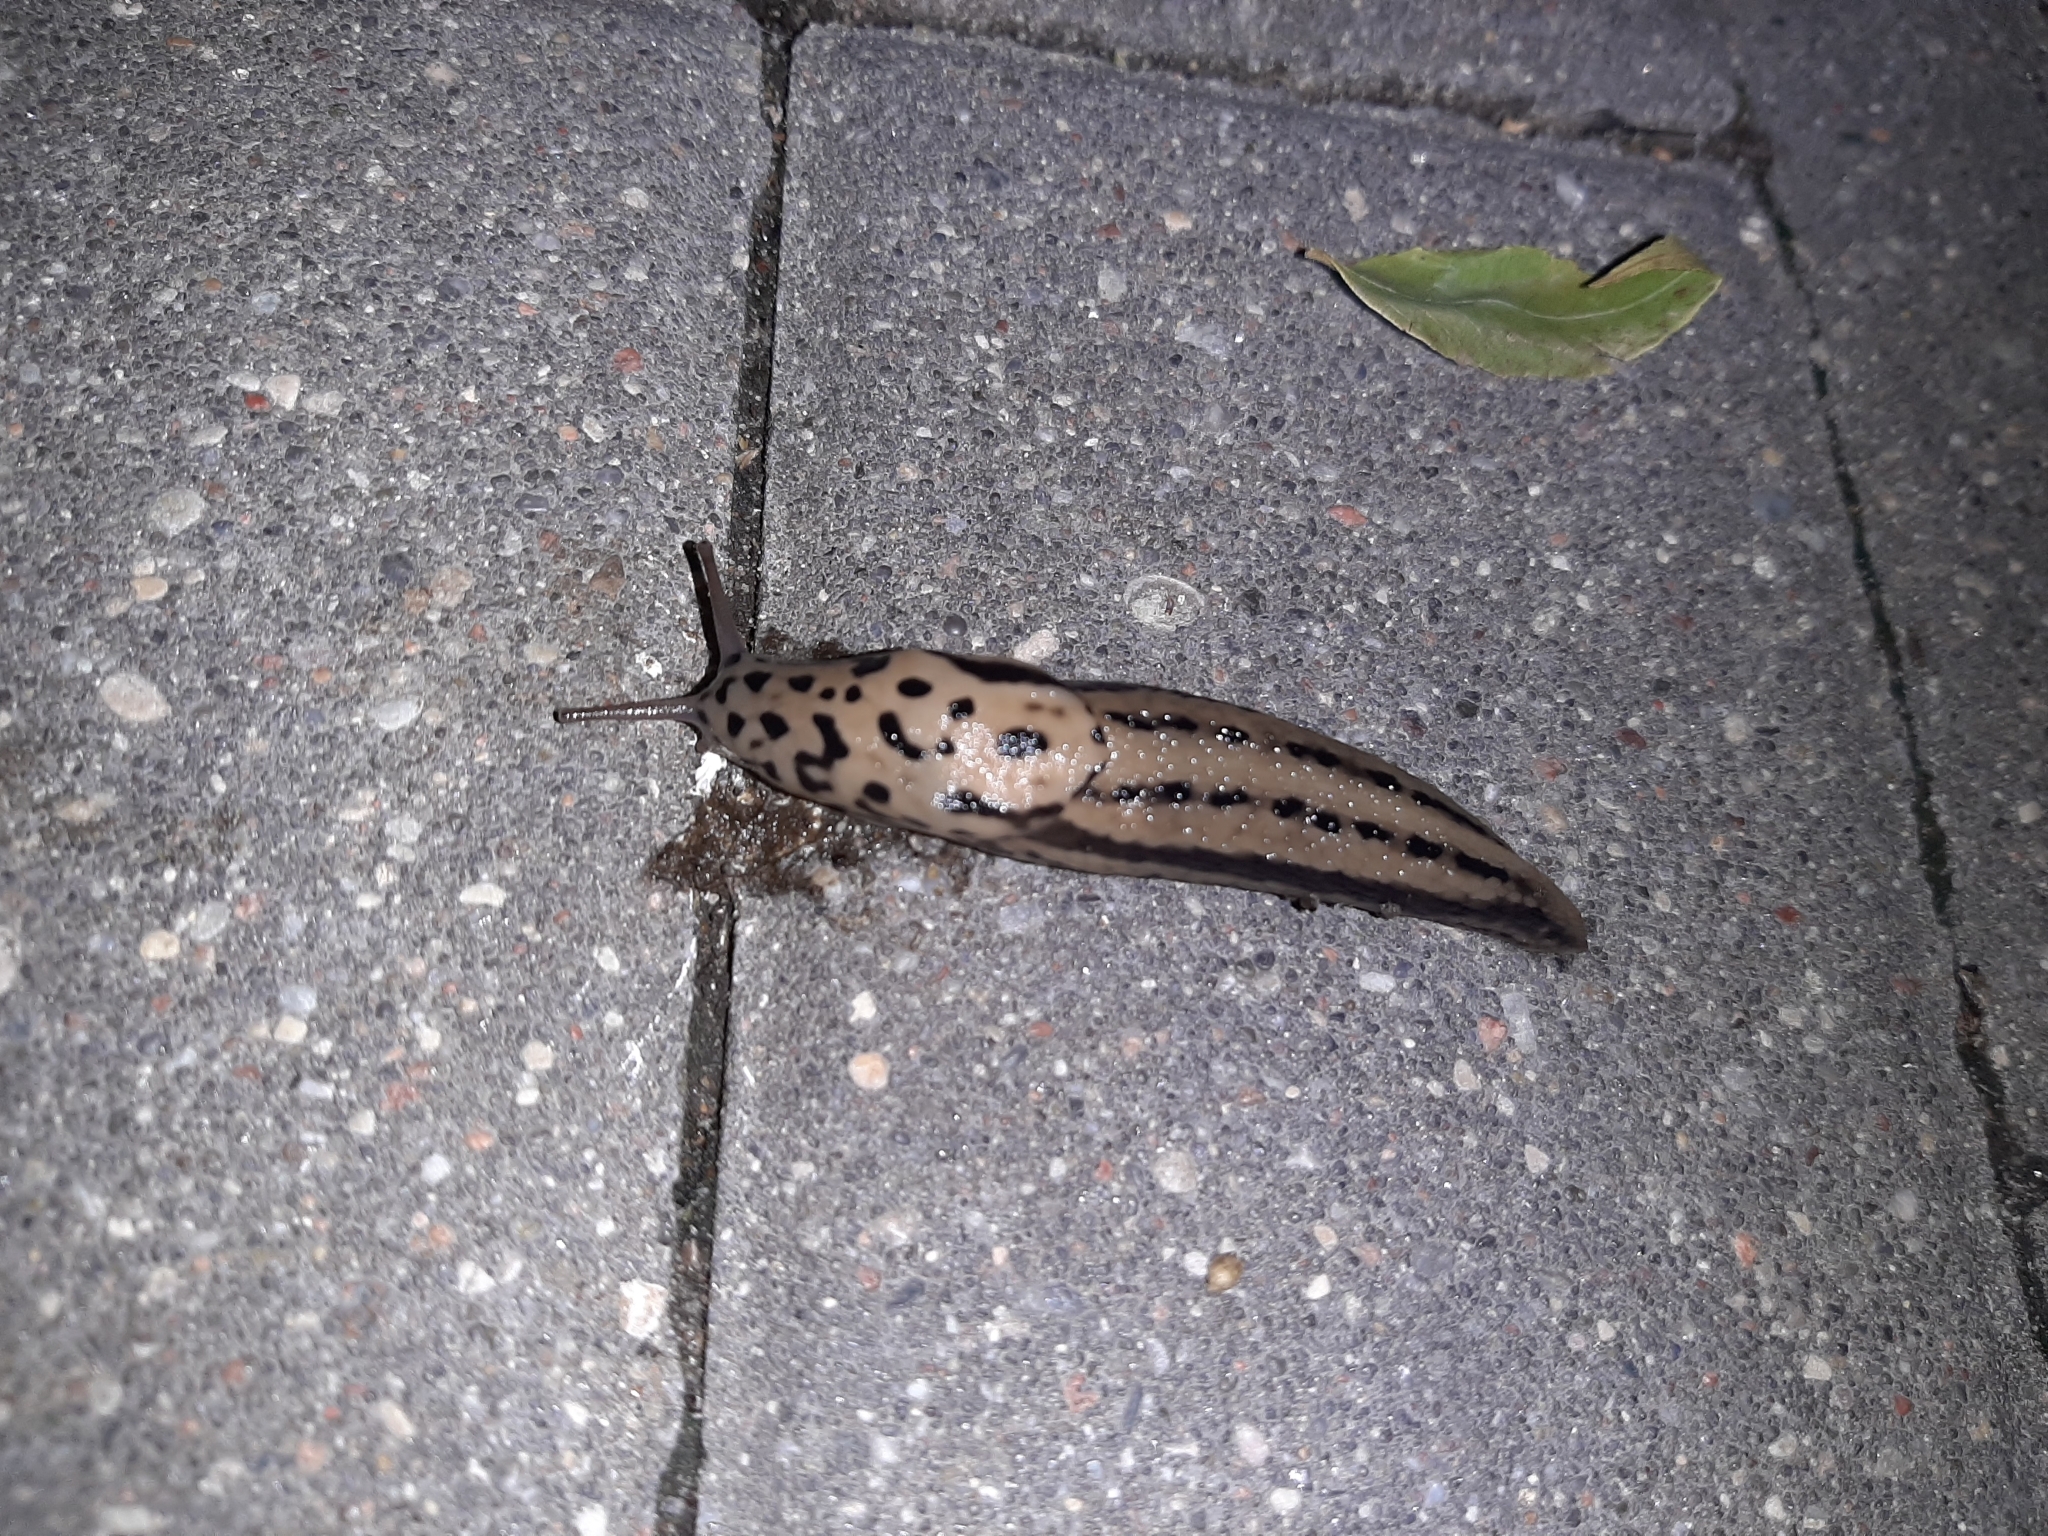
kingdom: Animalia
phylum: Mollusca
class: Gastropoda
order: Stylommatophora
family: Limacidae
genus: Limax
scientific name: Limax maximus
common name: Great grey slug
